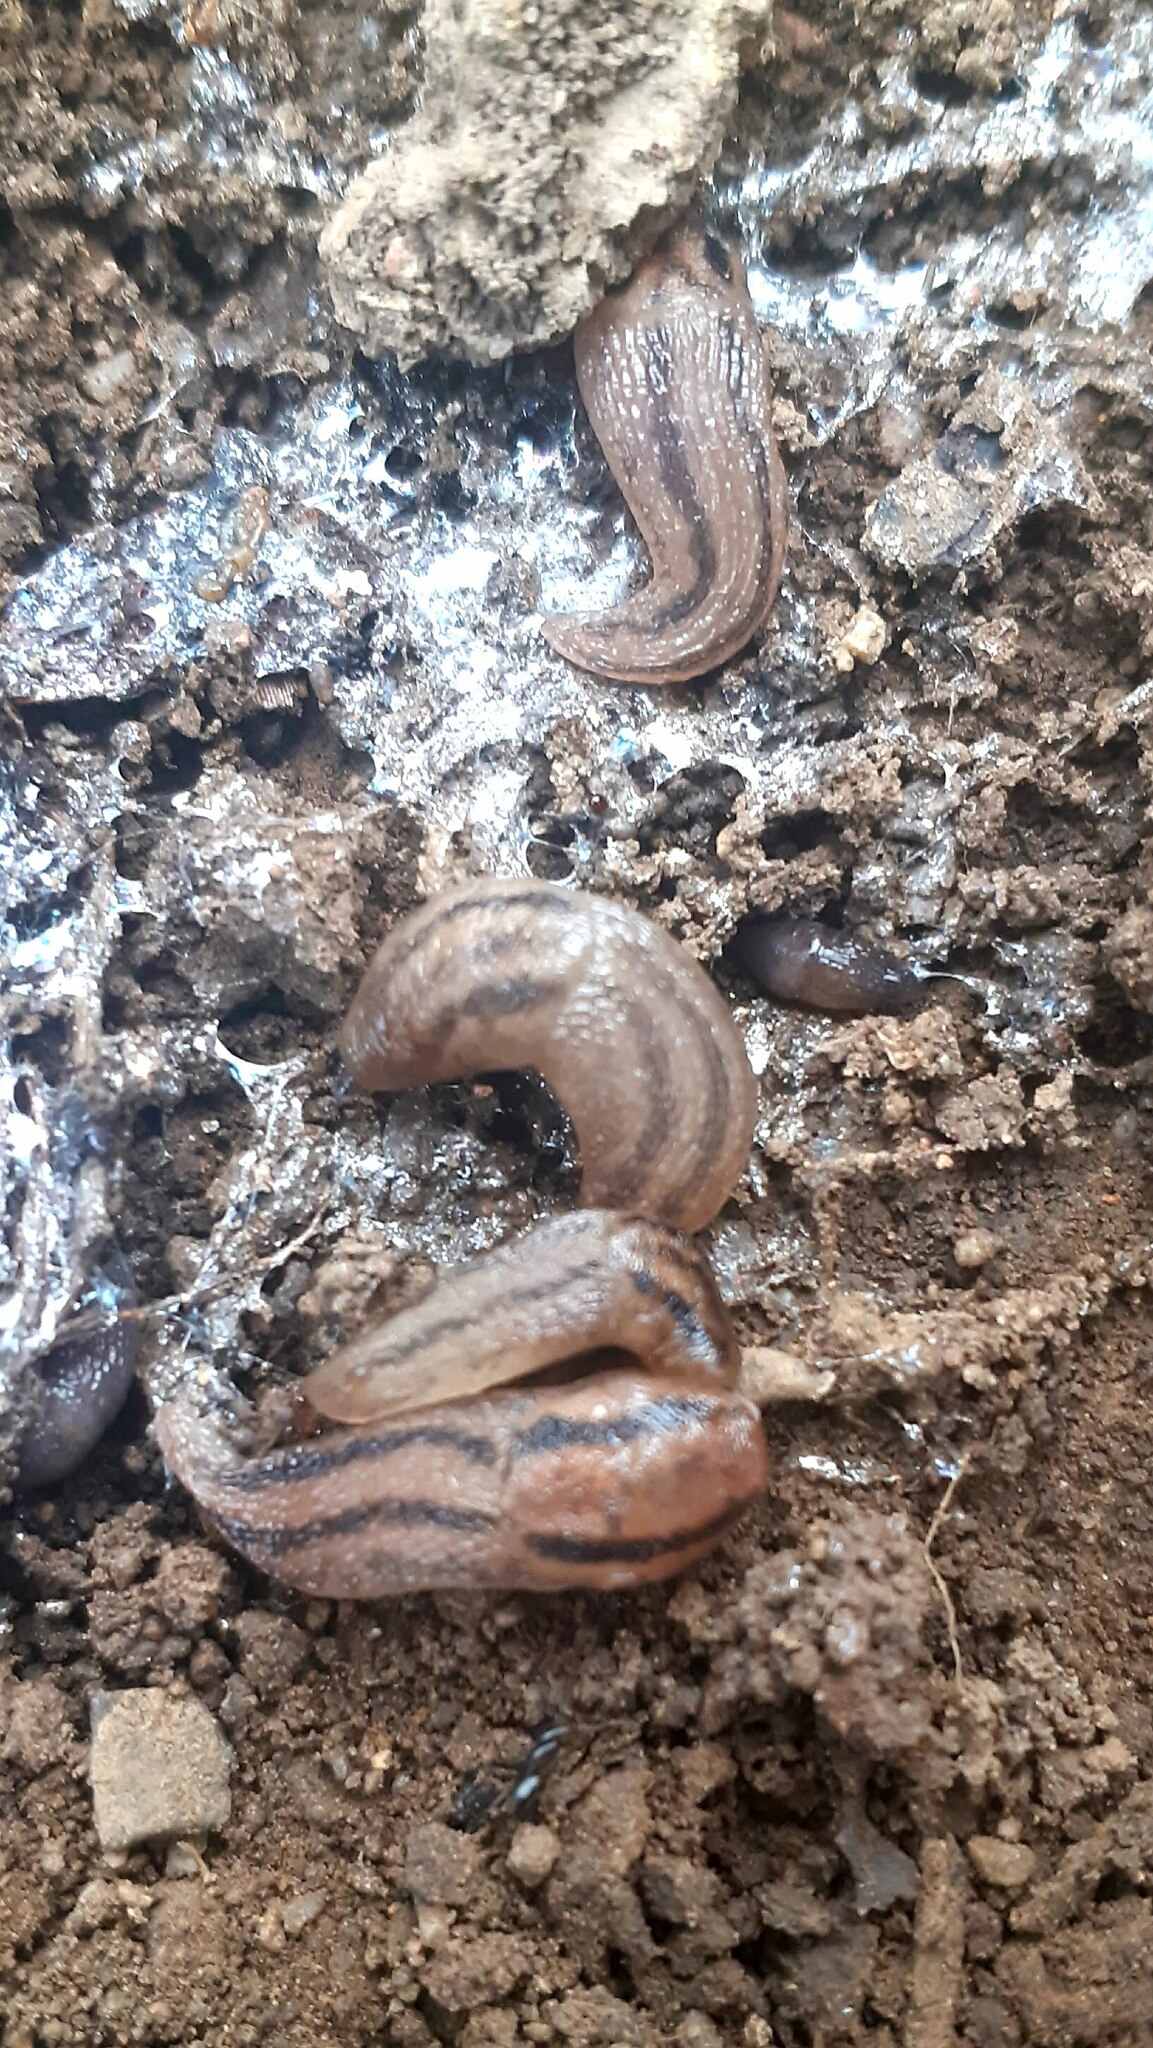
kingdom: Animalia
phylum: Mollusca
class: Gastropoda
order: Stylommatophora
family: Limacidae
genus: Ambigolimax
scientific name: Ambigolimax
